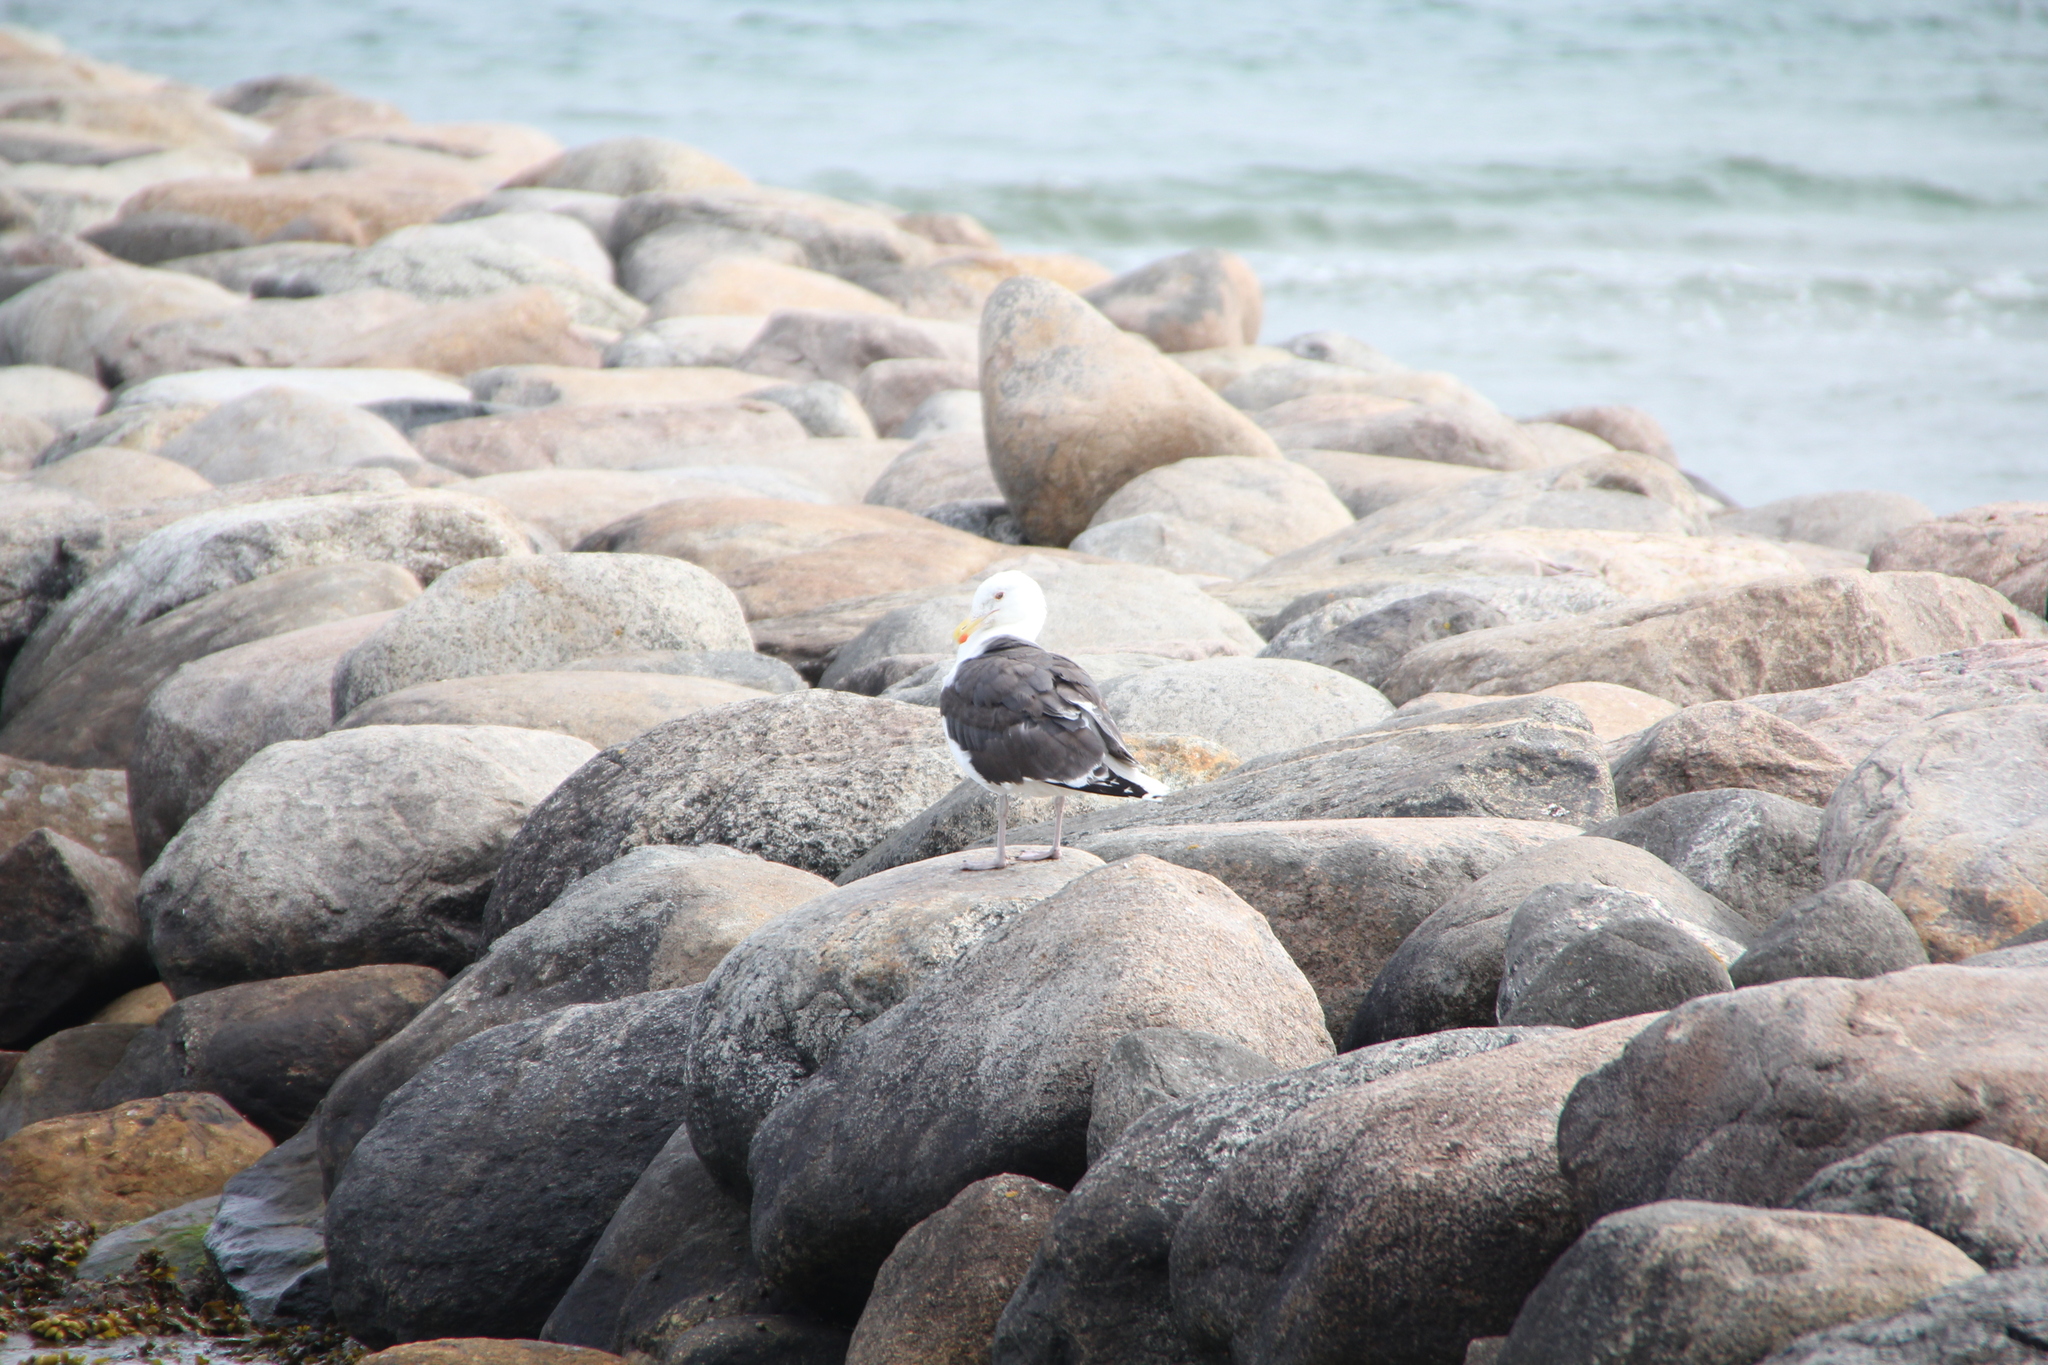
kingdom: Animalia
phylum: Chordata
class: Aves
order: Charadriiformes
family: Laridae
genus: Larus
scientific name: Larus marinus
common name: Great black-backed gull
